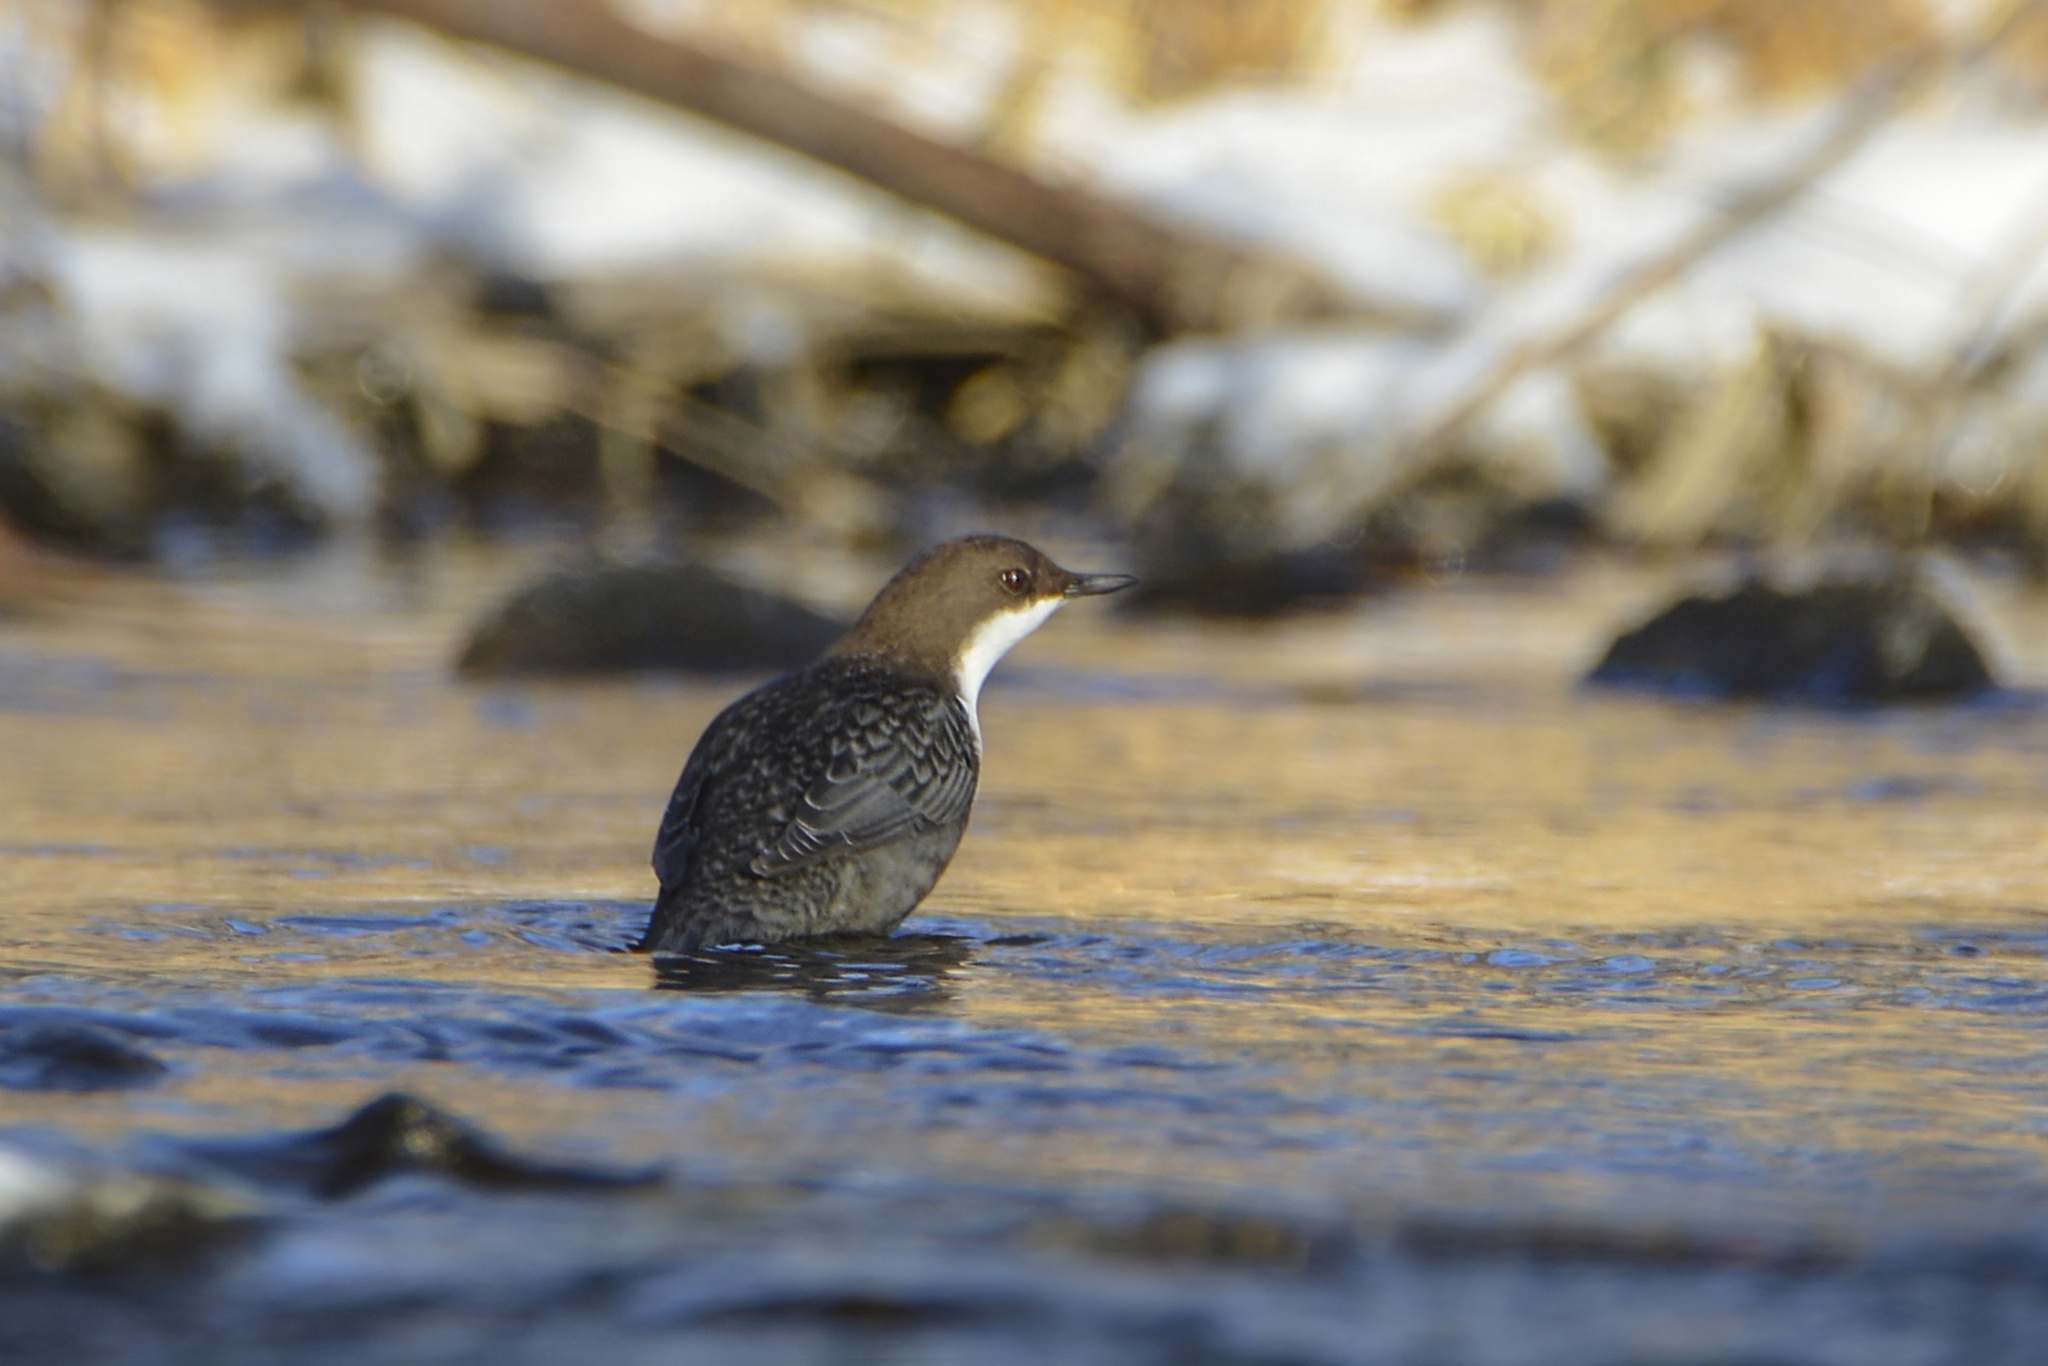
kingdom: Animalia
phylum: Chordata
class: Aves
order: Passeriformes
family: Cinclidae
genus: Cinclus
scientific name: Cinclus cinclus
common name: White-throated dipper
